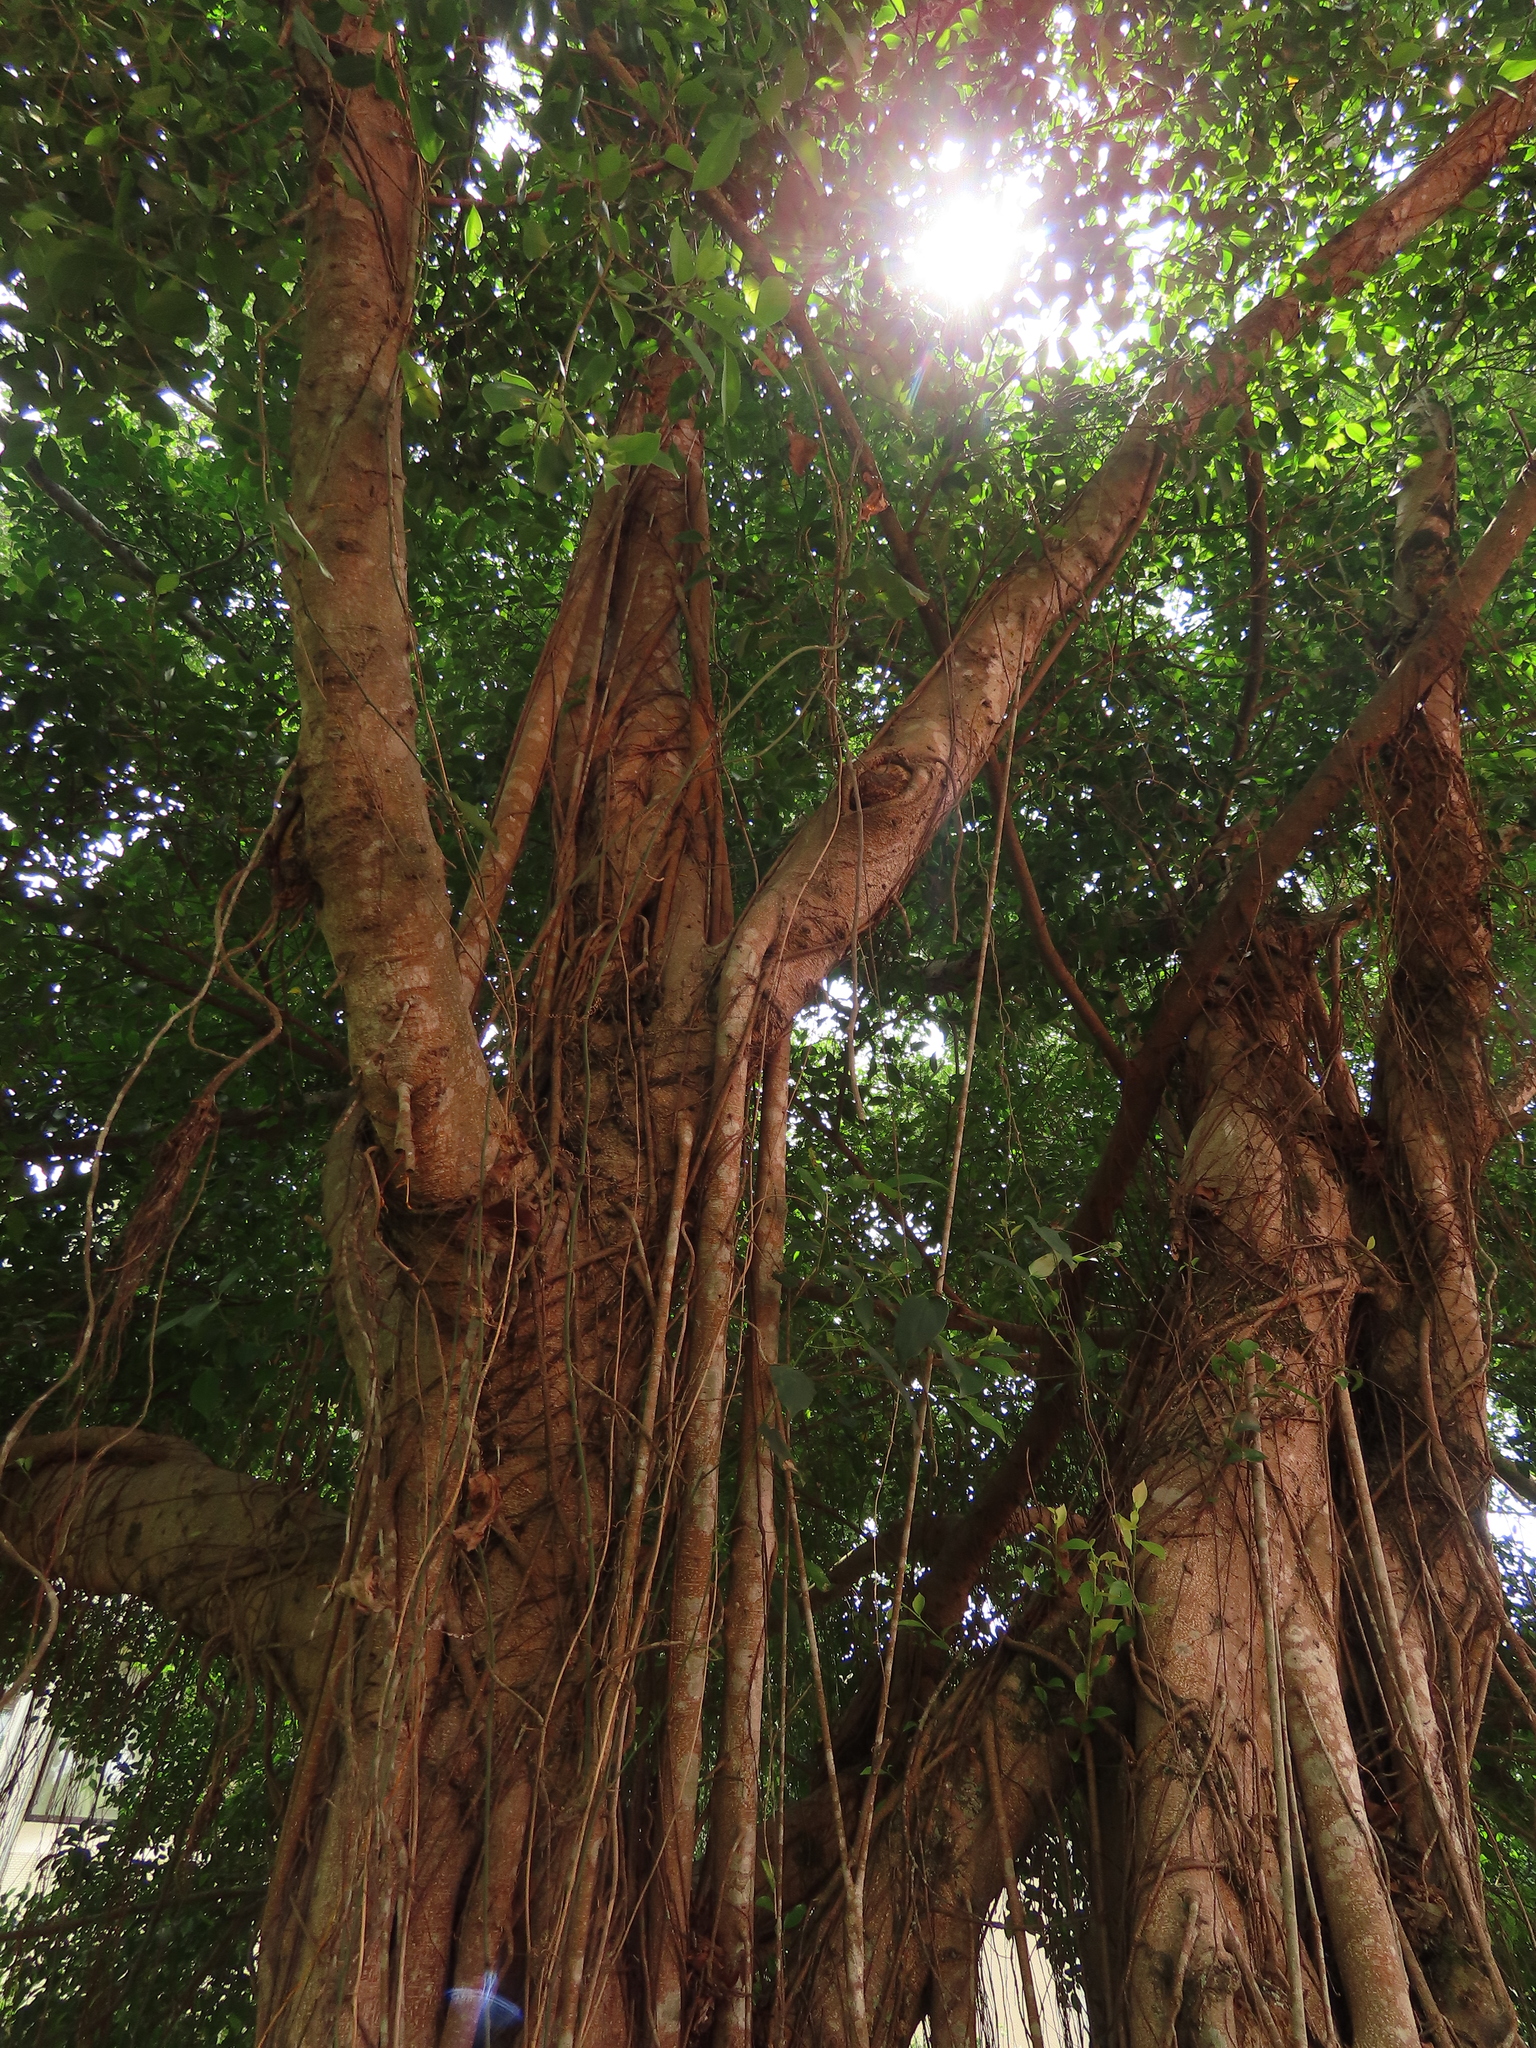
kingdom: Plantae
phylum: Tracheophyta
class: Liliopsida
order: Liliales
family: Smilacaceae
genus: Smilax
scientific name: Smilax
